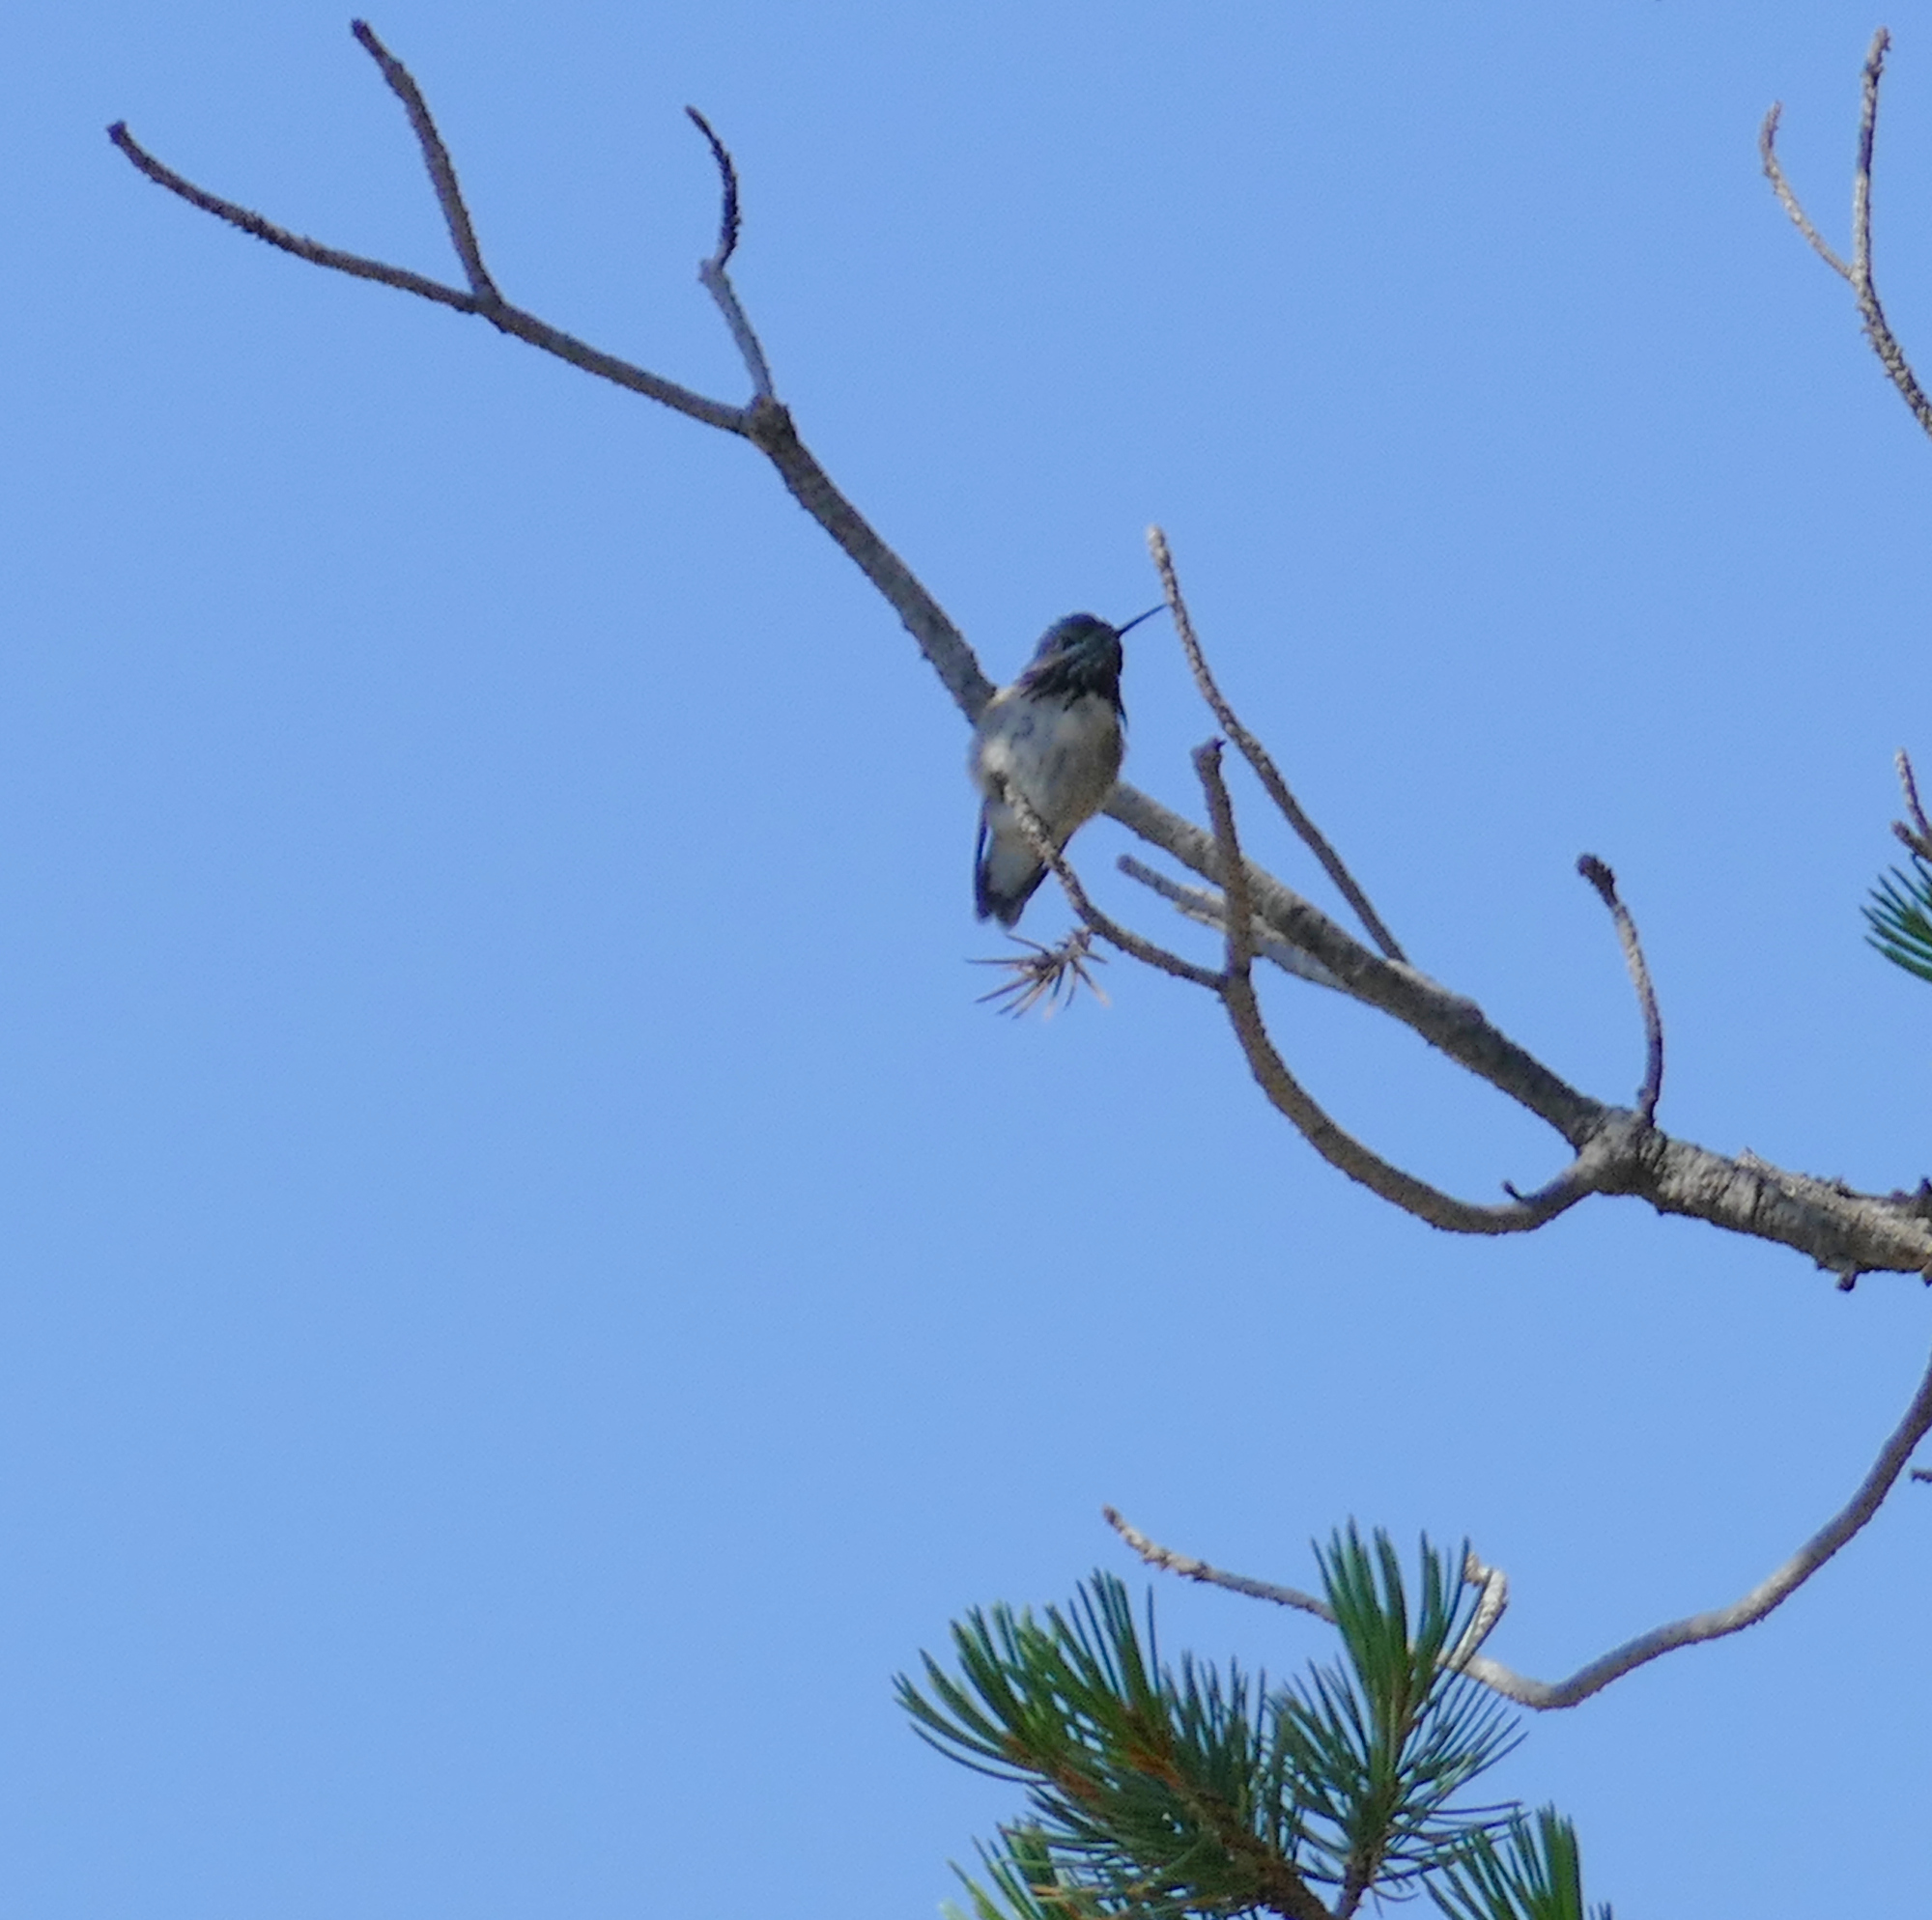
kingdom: Animalia
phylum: Chordata
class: Aves
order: Apodiformes
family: Trochilidae
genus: Selasphorus
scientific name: Selasphorus calliope
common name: Calliope hummingbird
